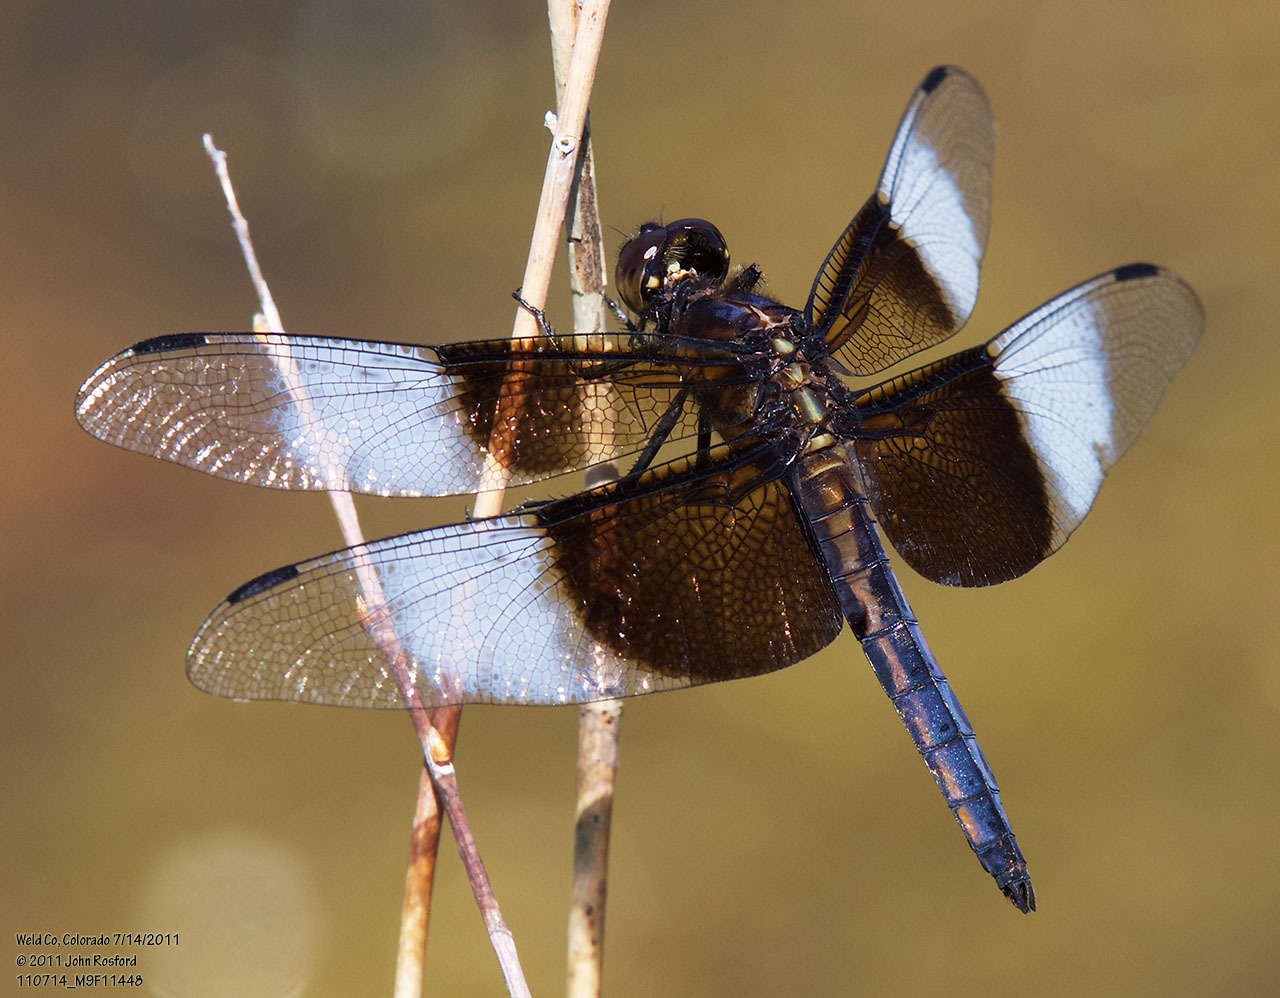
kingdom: Animalia
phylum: Arthropoda
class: Insecta
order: Odonata
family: Libellulidae
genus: Libellula
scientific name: Libellula luctuosa
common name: Widow skimmer
